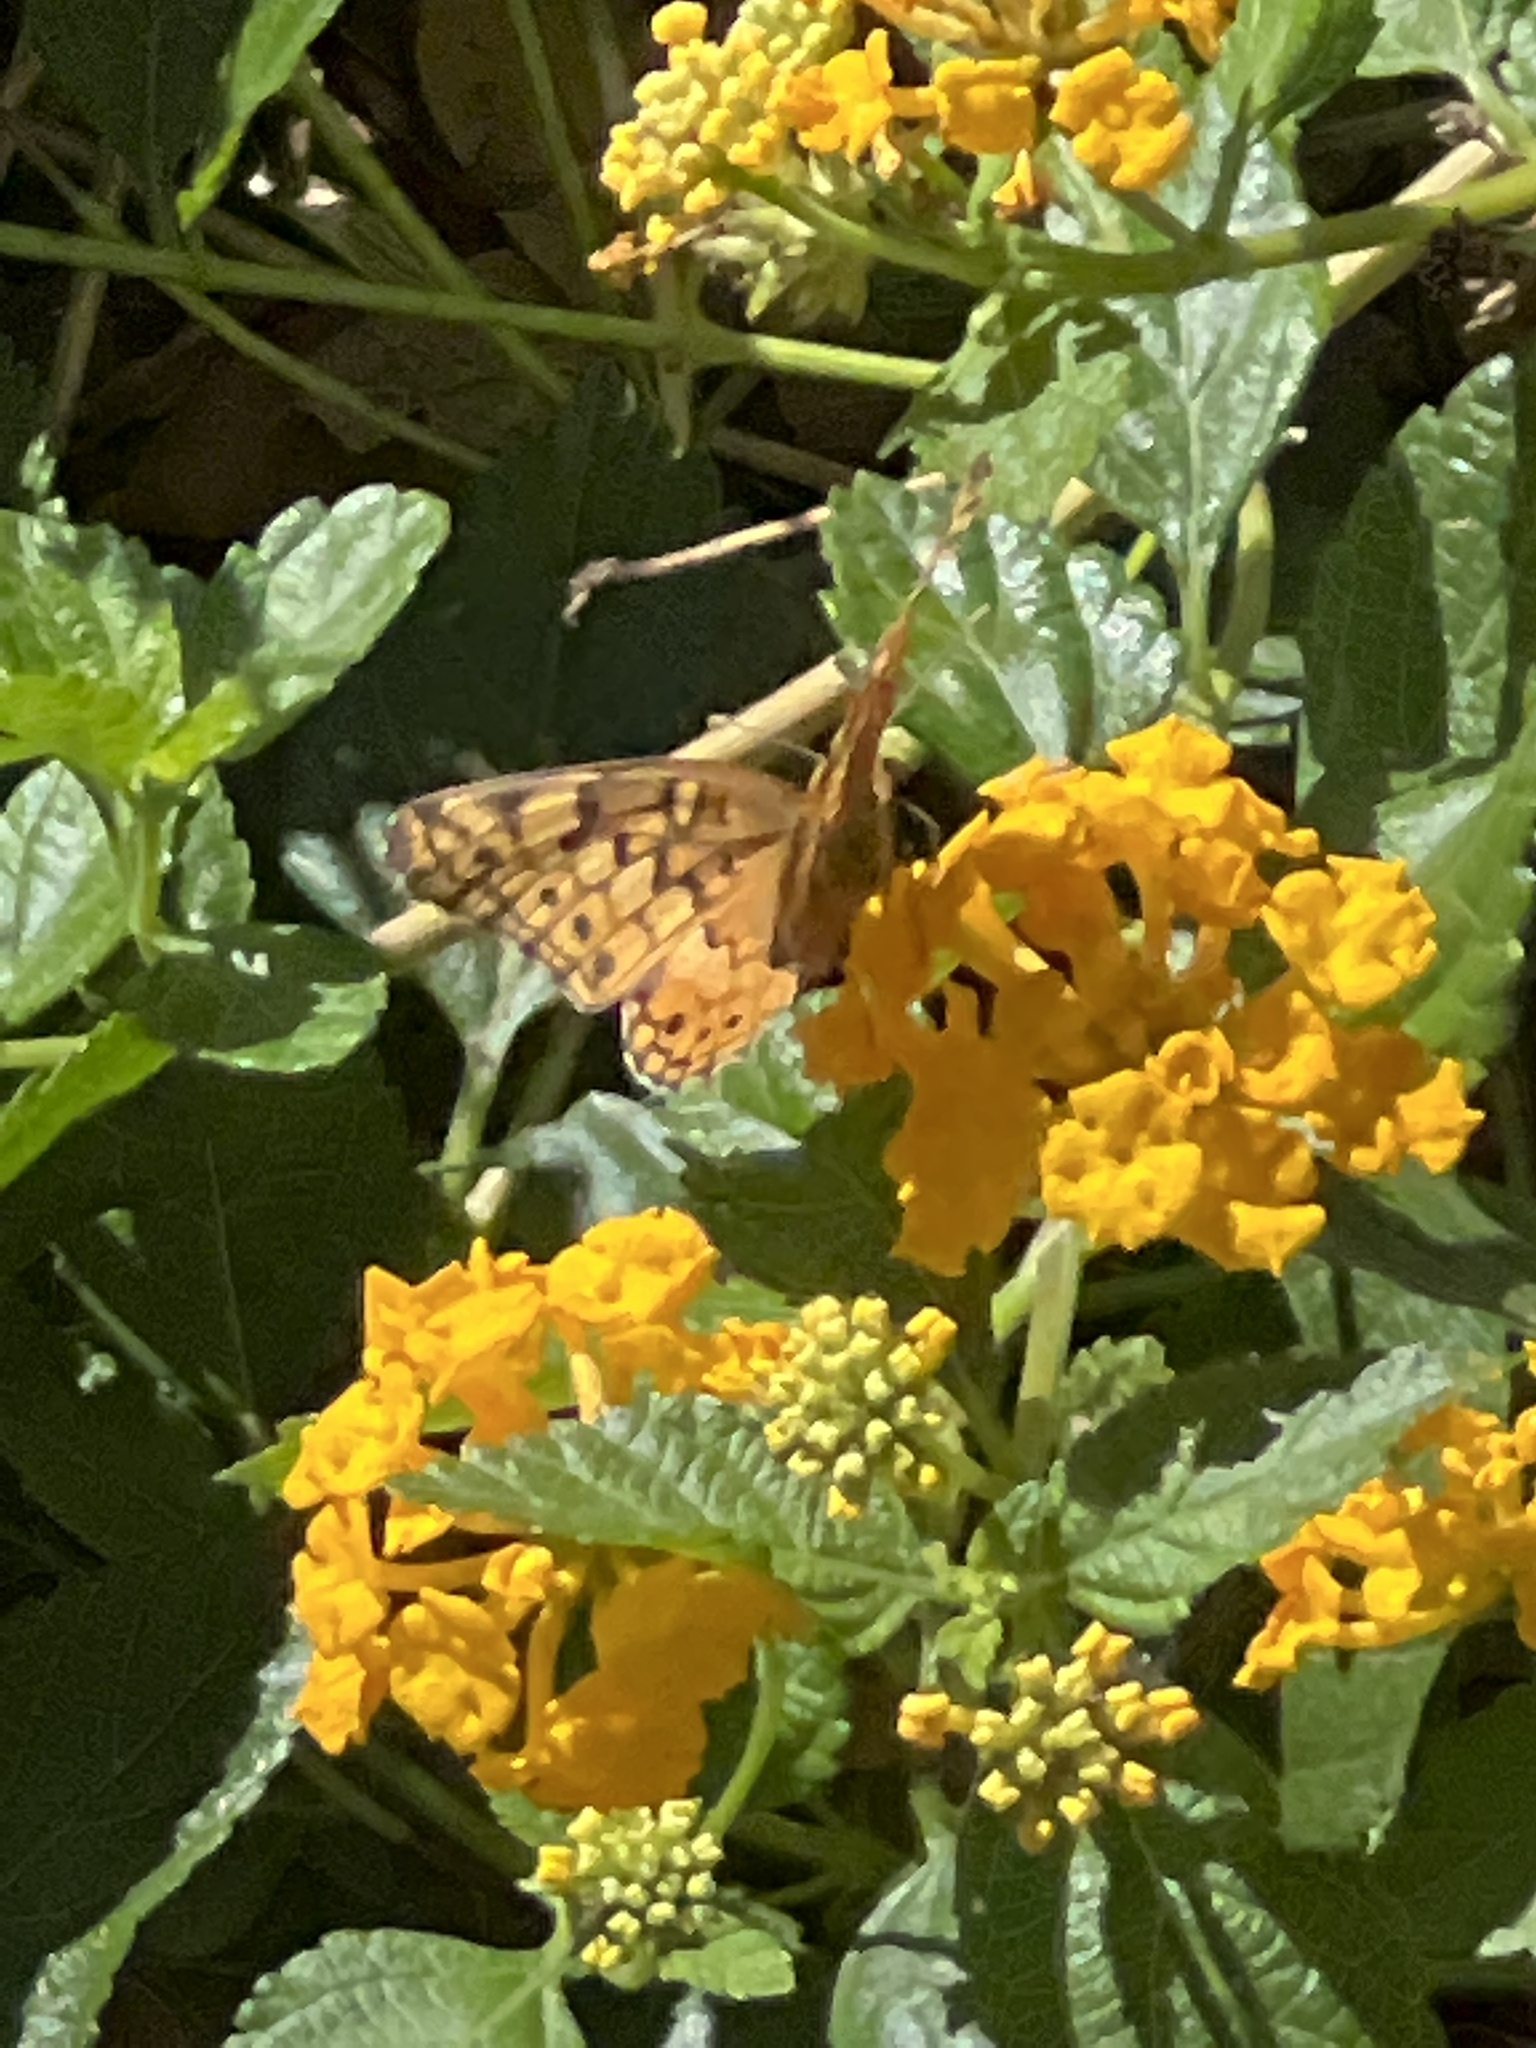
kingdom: Animalia
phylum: Arthropoda
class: Insecta
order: Lepidoptera
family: Nymphalidae
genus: Euptoieta
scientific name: Euptoieta claudia
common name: Variegated fritillary
